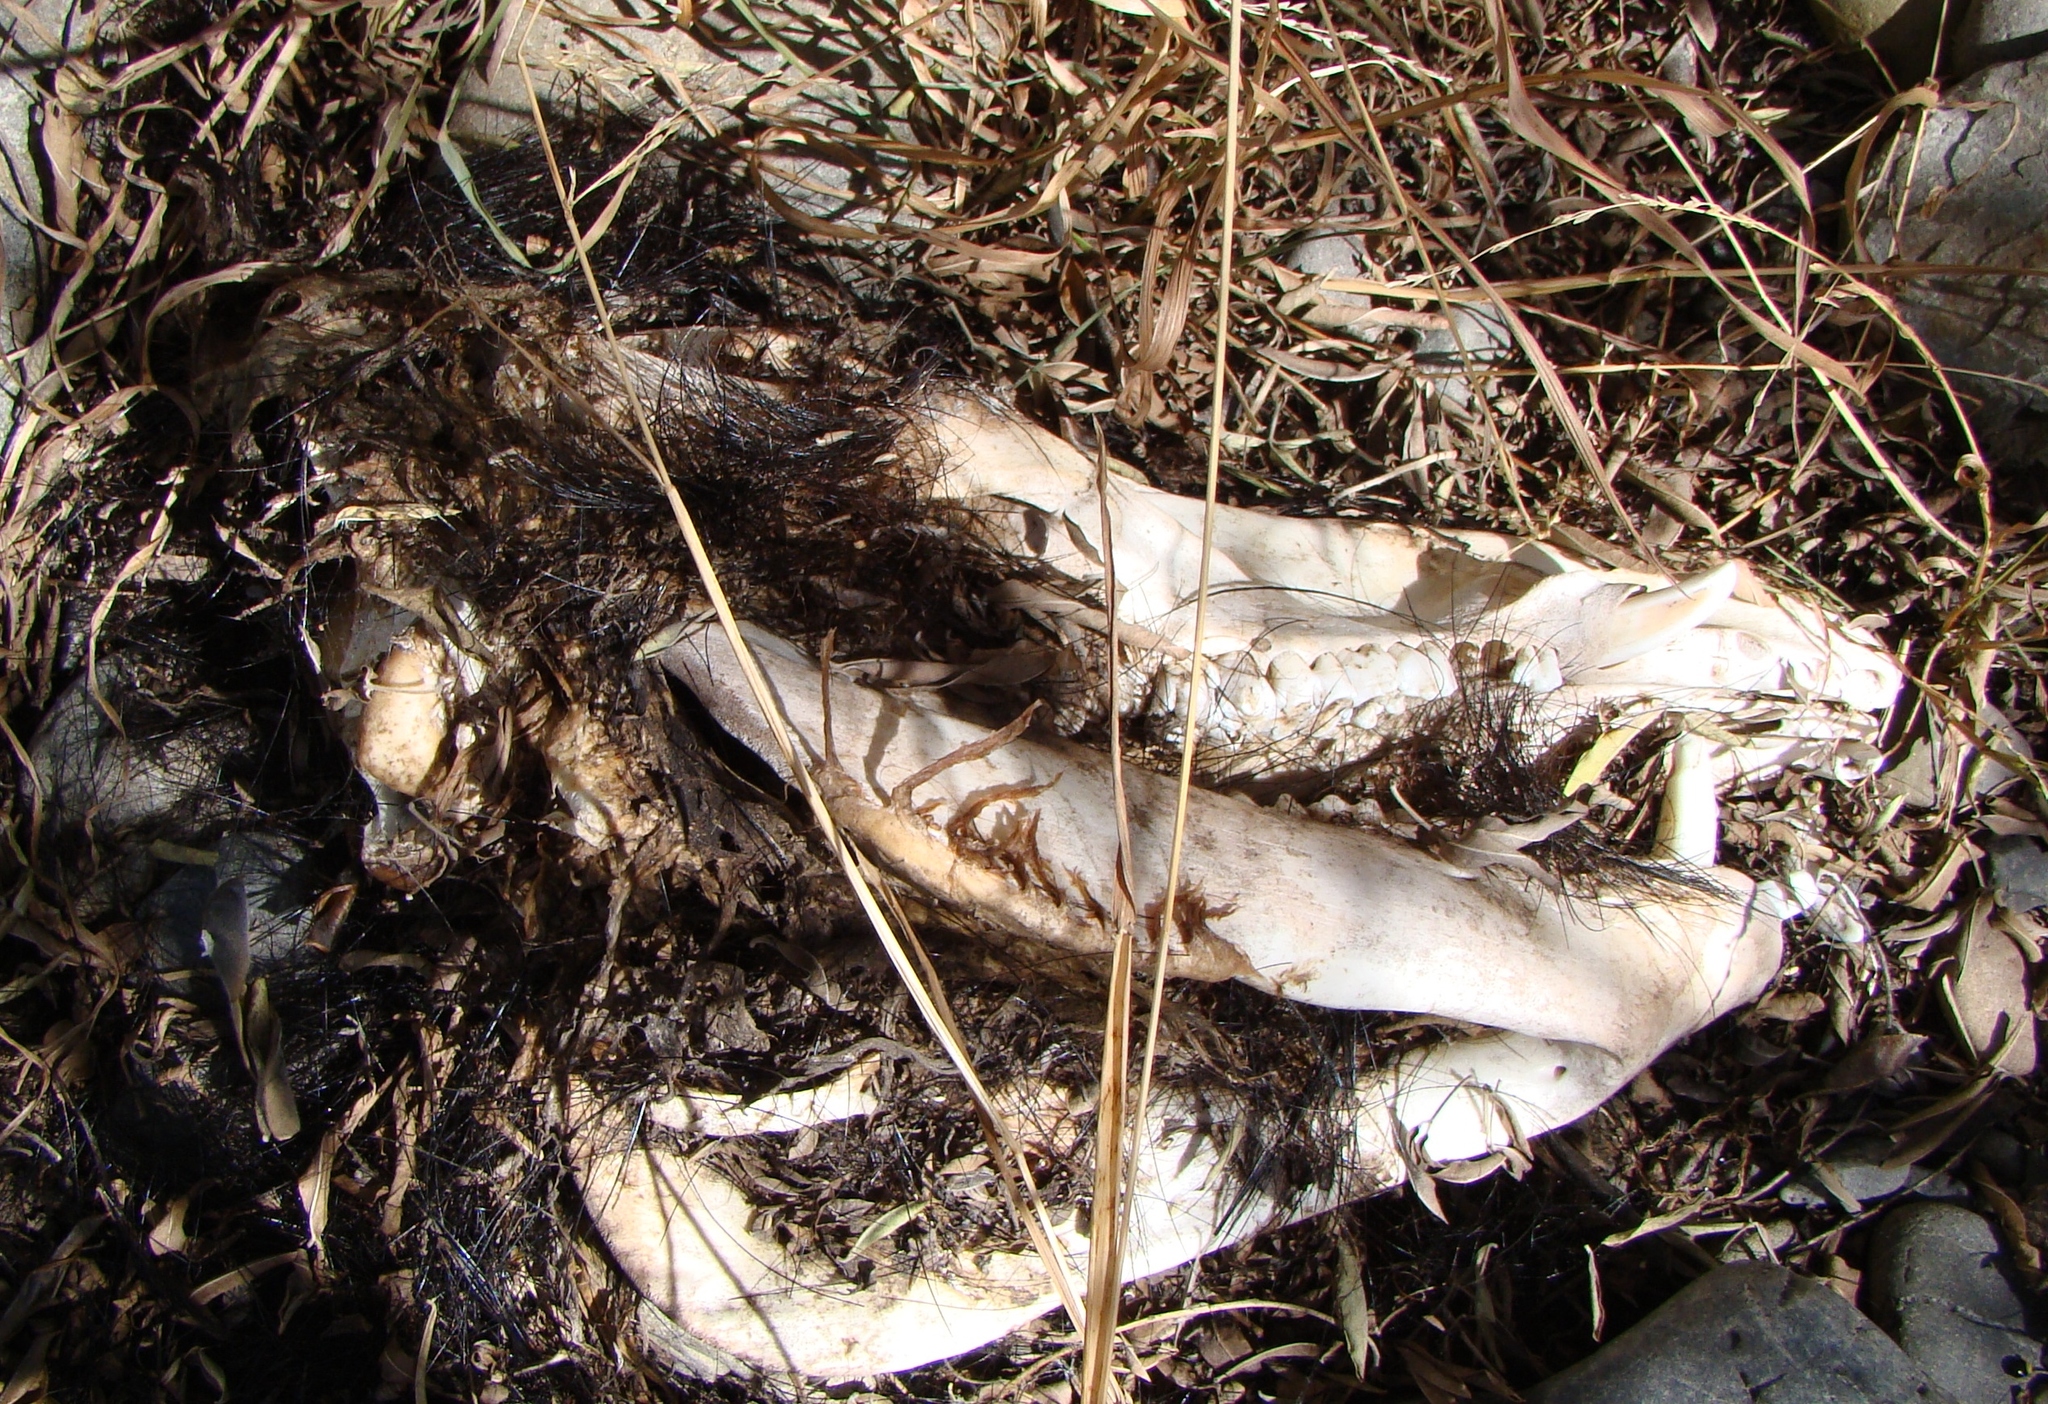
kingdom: Animalia
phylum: Chordata
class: Mammalia
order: Artiodactyla
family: Suidae
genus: Sus
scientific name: Sus scrofa
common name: Wild boar
